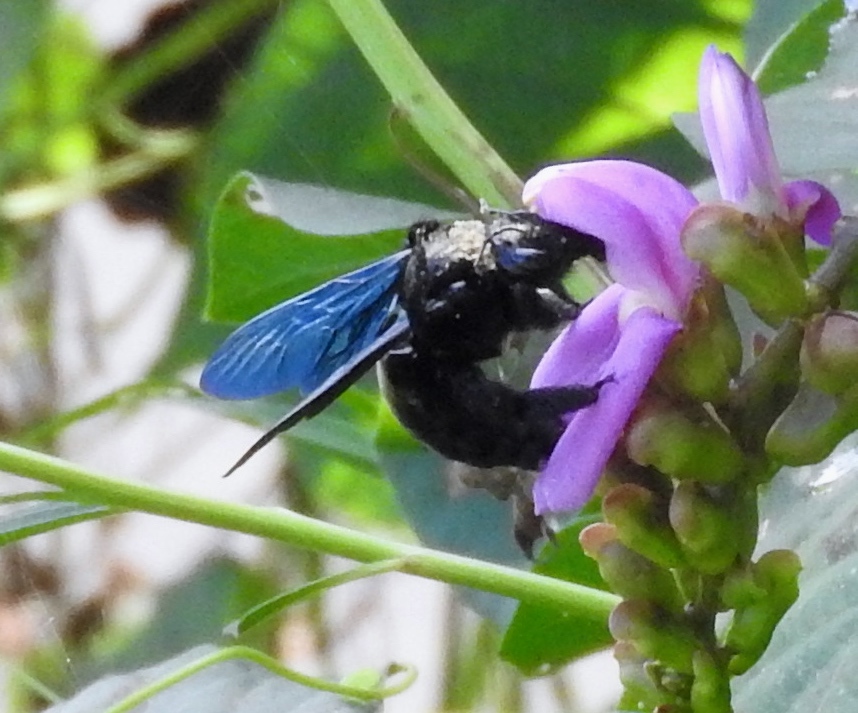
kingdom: Animalia
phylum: Arthropoda
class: Insecta
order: Hymenoptera
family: Apidae
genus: Xylocopa
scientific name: Xylocopa fimbriata
